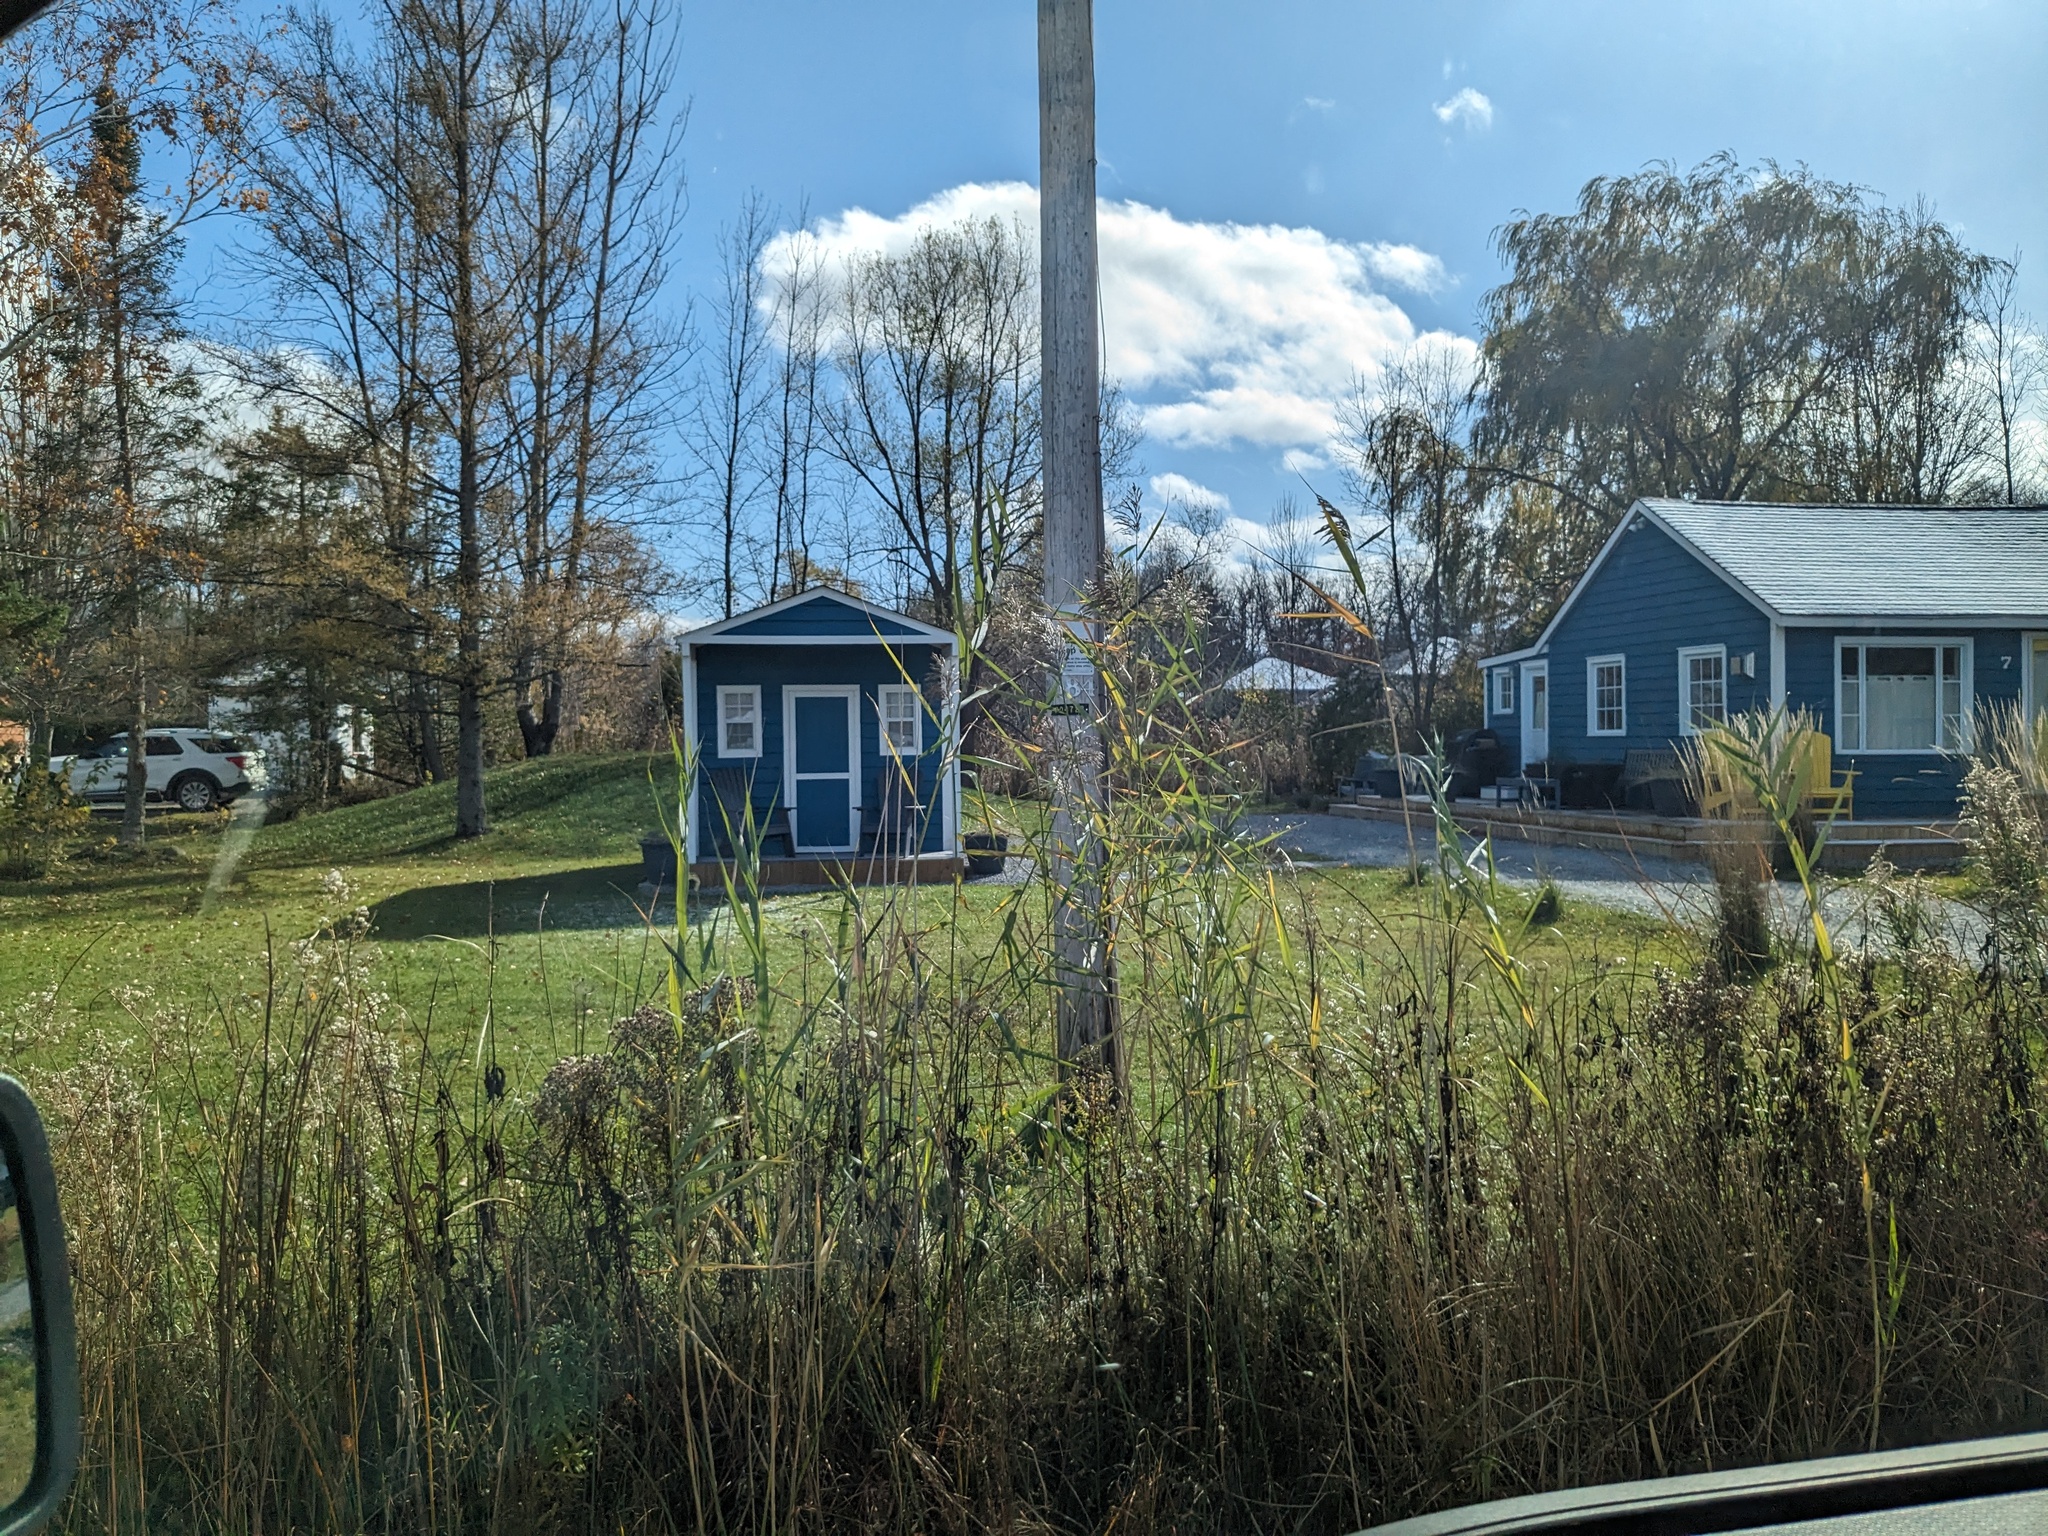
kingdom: Plantae
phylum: Tracheophyta
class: Liliopsida
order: Poales
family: Poaceae
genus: Phragmites
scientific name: Phragmites australis
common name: Common reed
